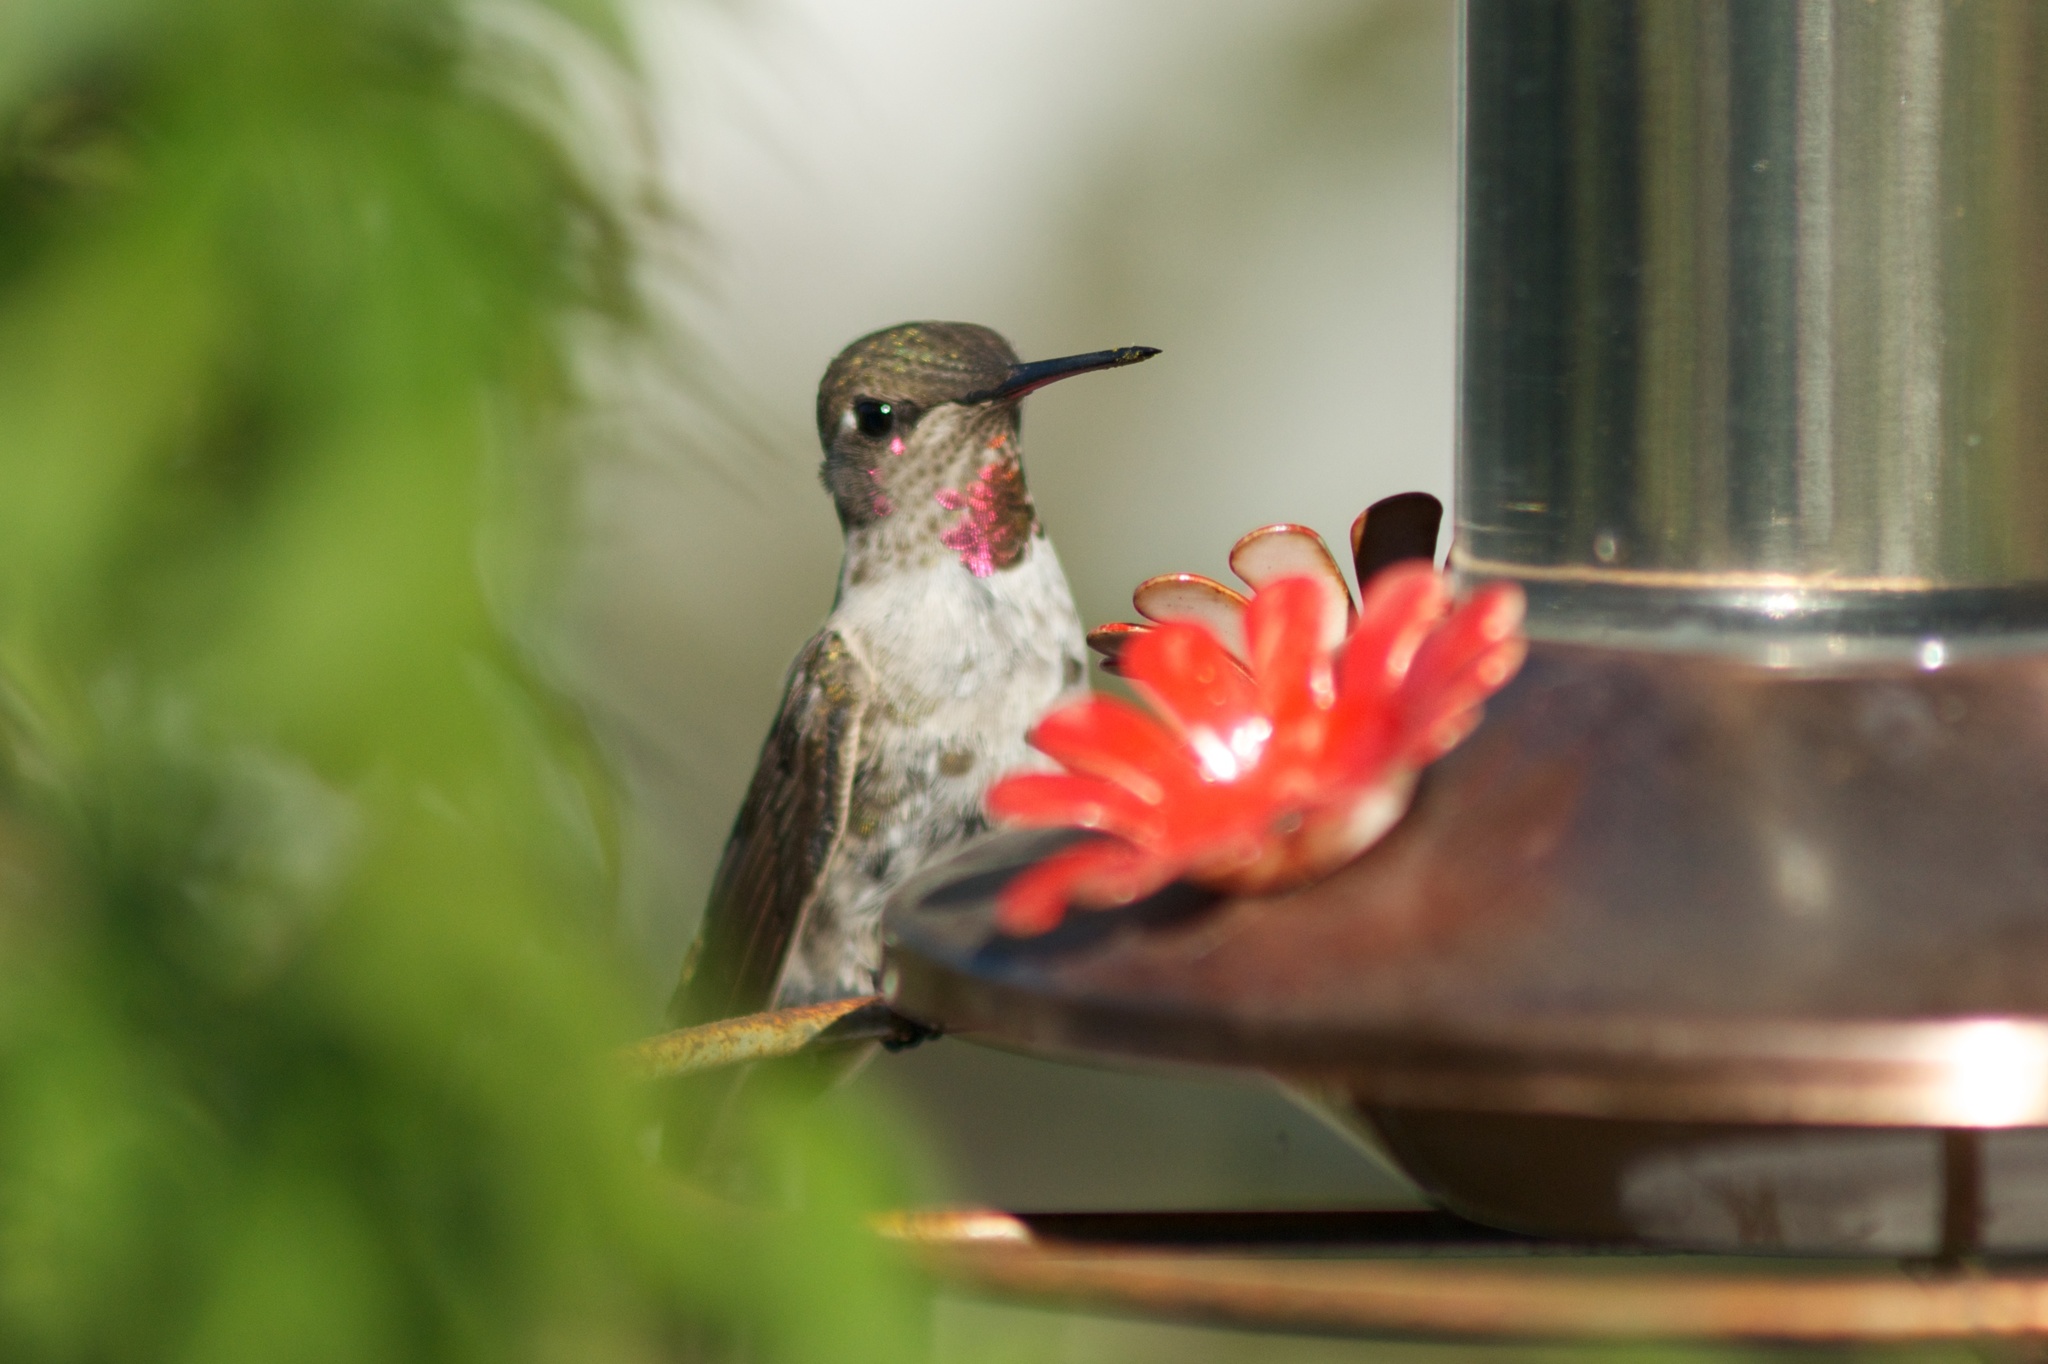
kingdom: Animalia
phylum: Chordata
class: Aves
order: Apodiformes
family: Trochilidae
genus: Calypte
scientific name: Calypte anna
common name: Anna's hummingbird
